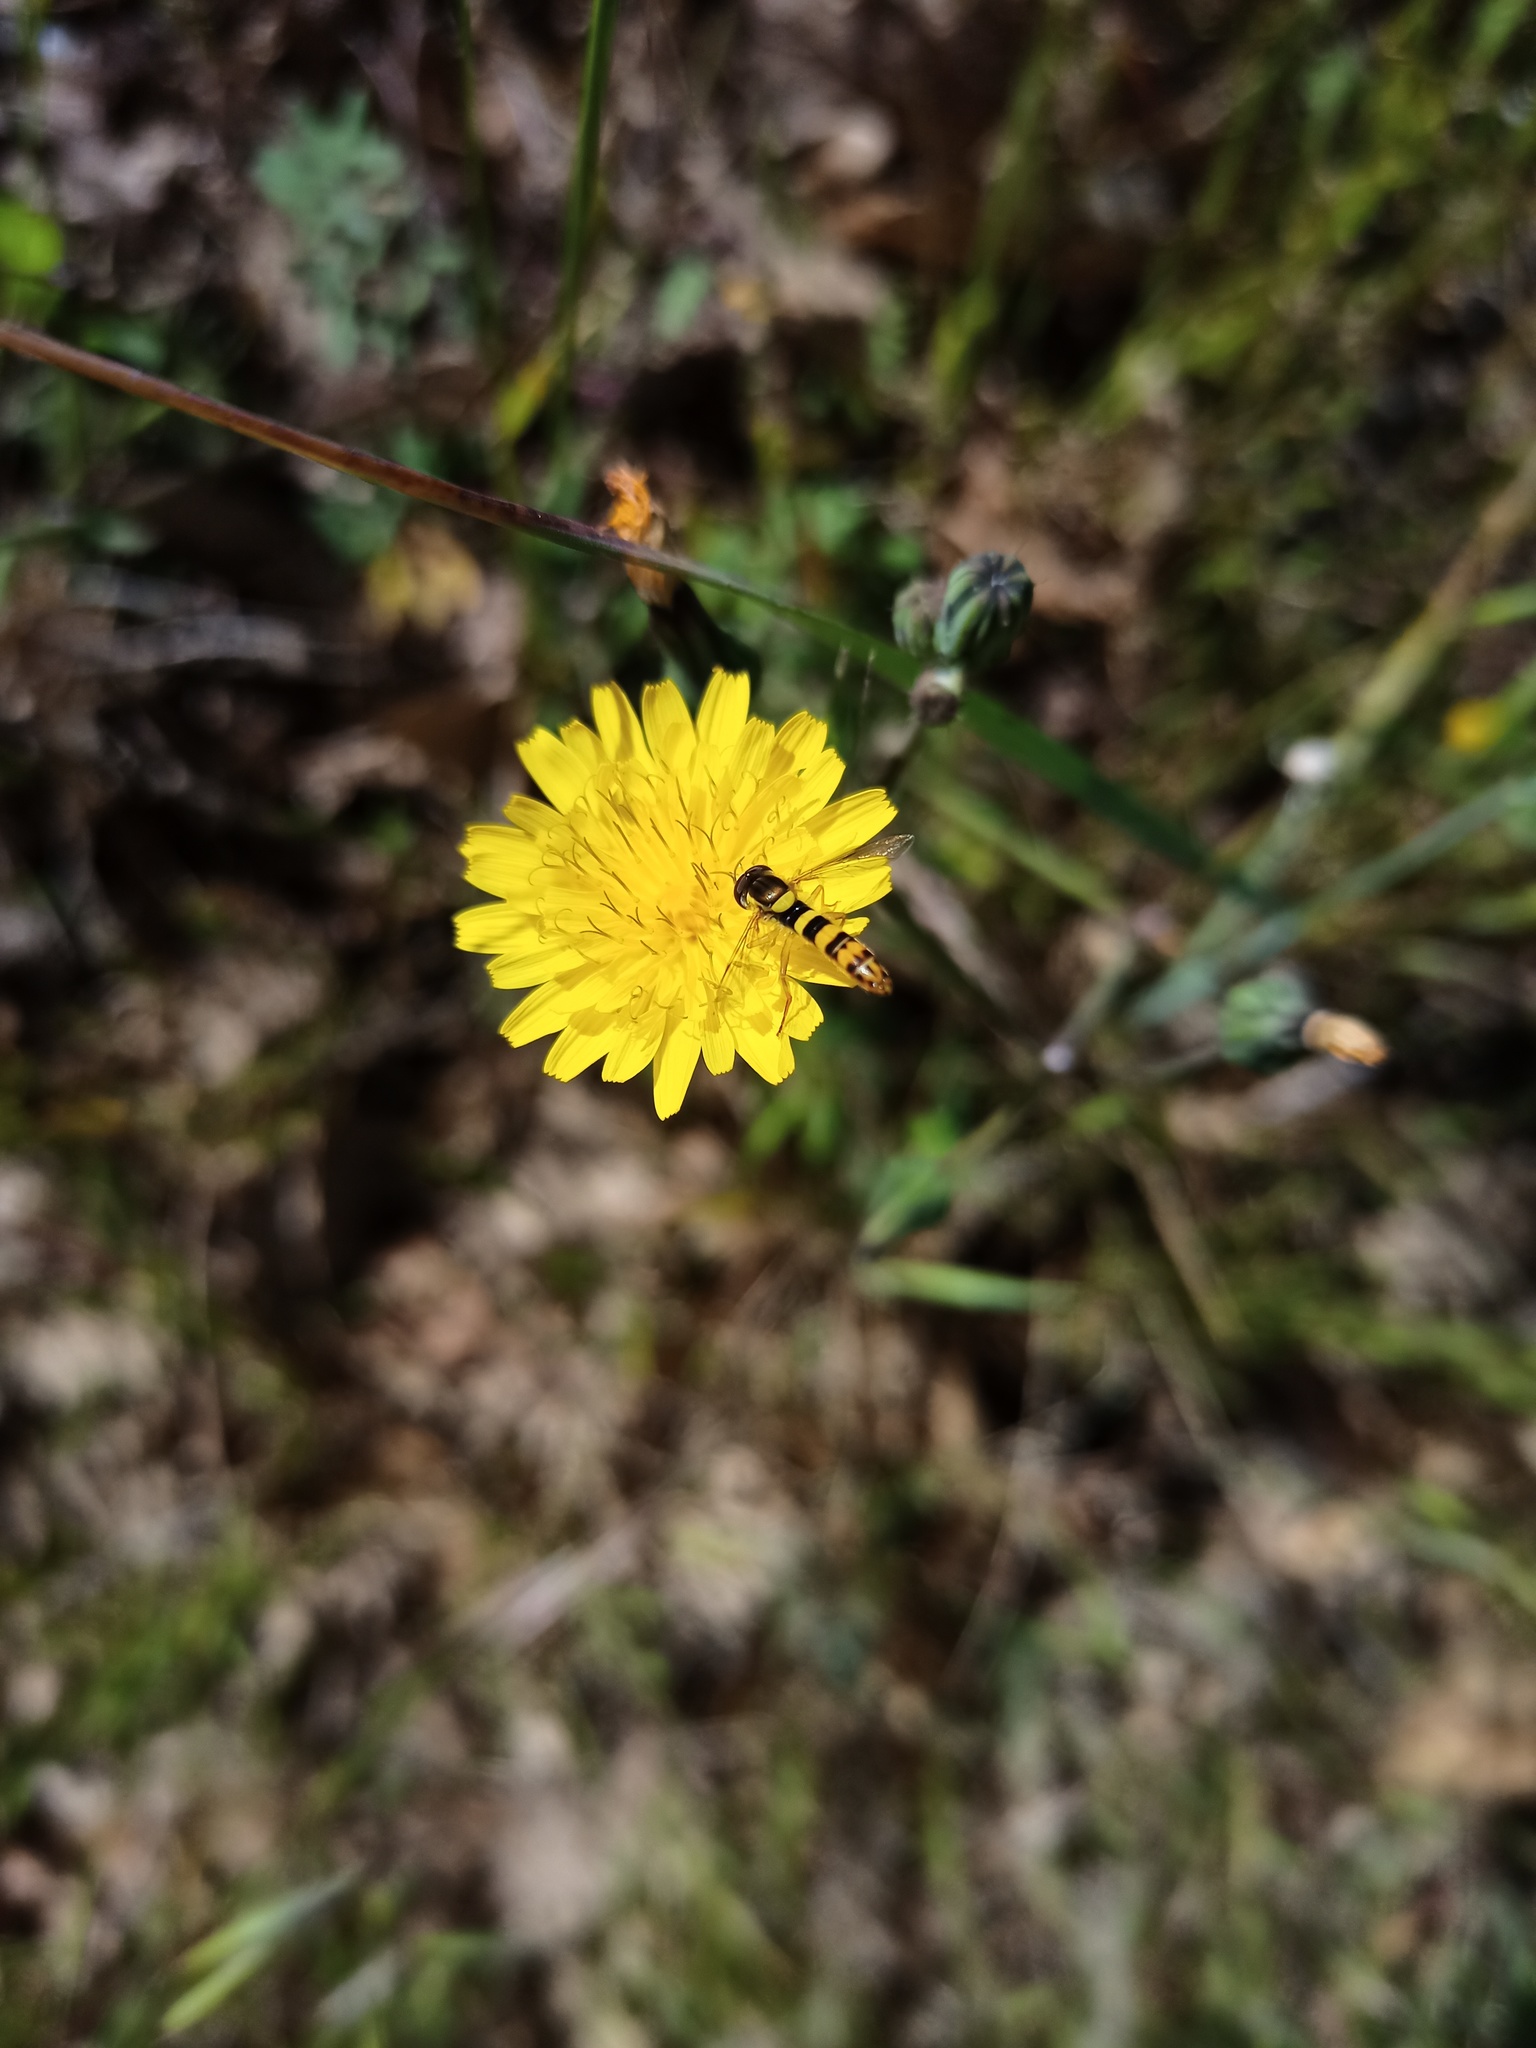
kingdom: Plantae
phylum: Tracheophyta
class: Magnoliopsida
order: Asterales
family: Asteraceae
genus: Hypochaeris
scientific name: Hypochaeris radicata
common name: Flatweed
